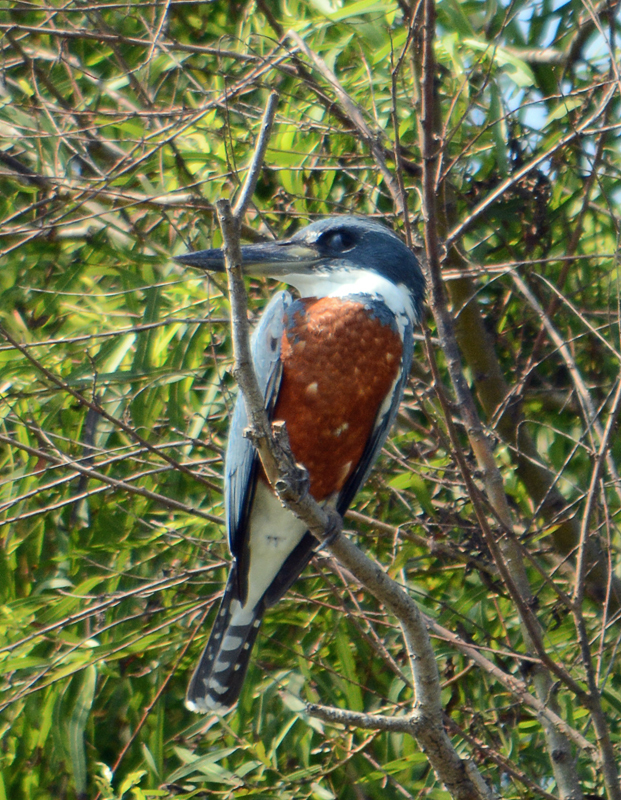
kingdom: Animalia
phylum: Chordata
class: Aves
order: Coraciiformes
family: Alcedinidae
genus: Megaceryle
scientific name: Megaceryle torquata
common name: Ringed kingfisher
